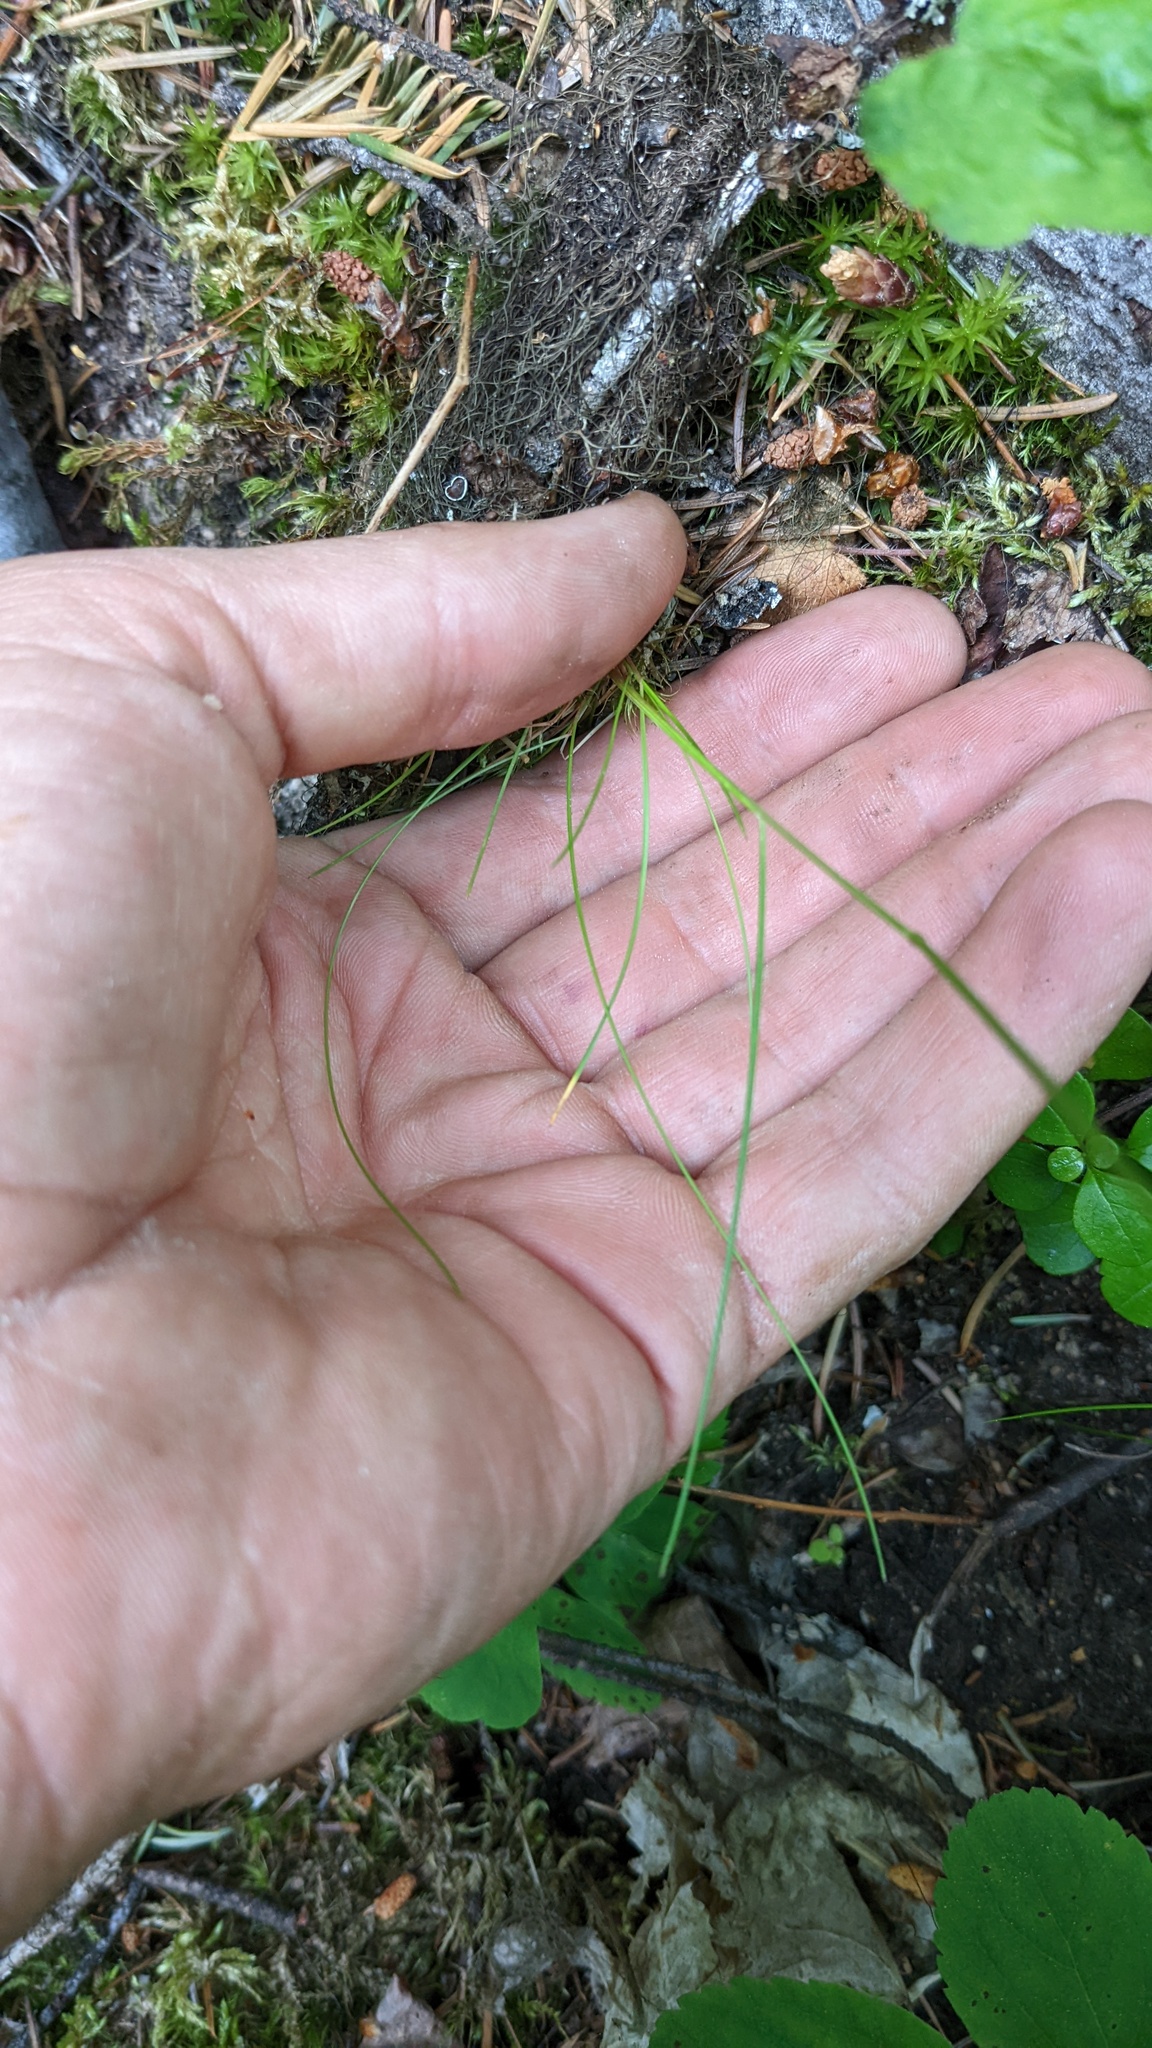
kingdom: Plantae
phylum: Tracheophyta
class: Liliopsida
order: Poales
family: Poaceae
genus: Festuca
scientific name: Festuca occidentalis
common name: Western fescue
